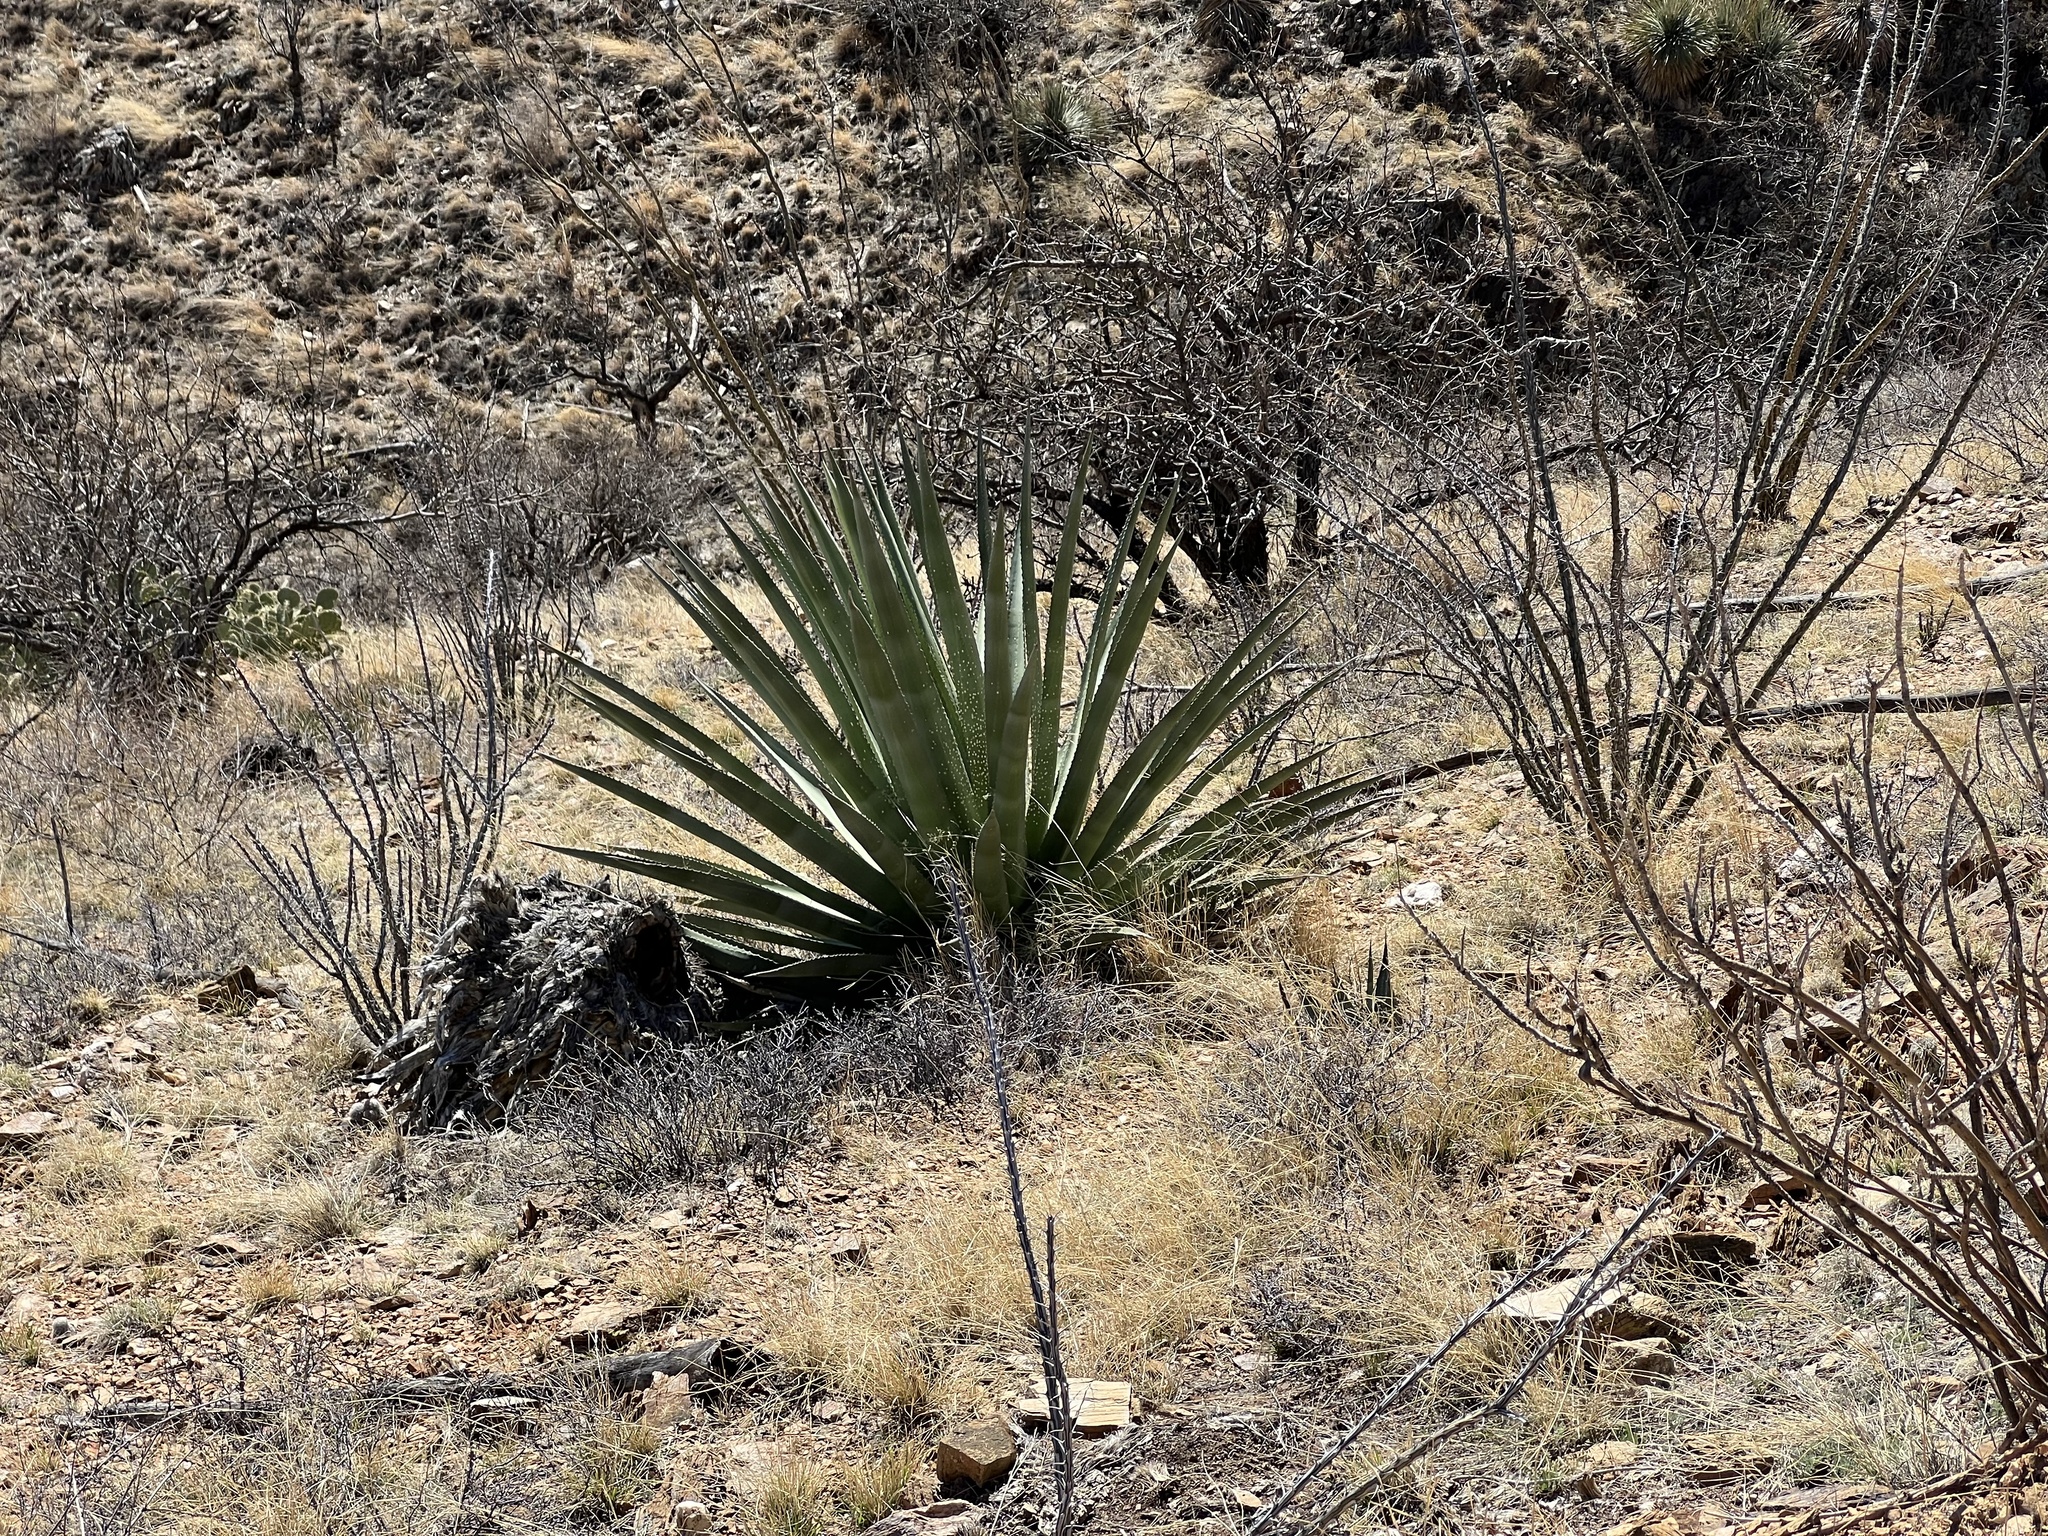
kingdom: Plantae
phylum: Tracheophyta
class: Liliopsida
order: Asparagales
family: Asparagaceae
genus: Agave
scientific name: Agave palmeri
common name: Palmer agave
